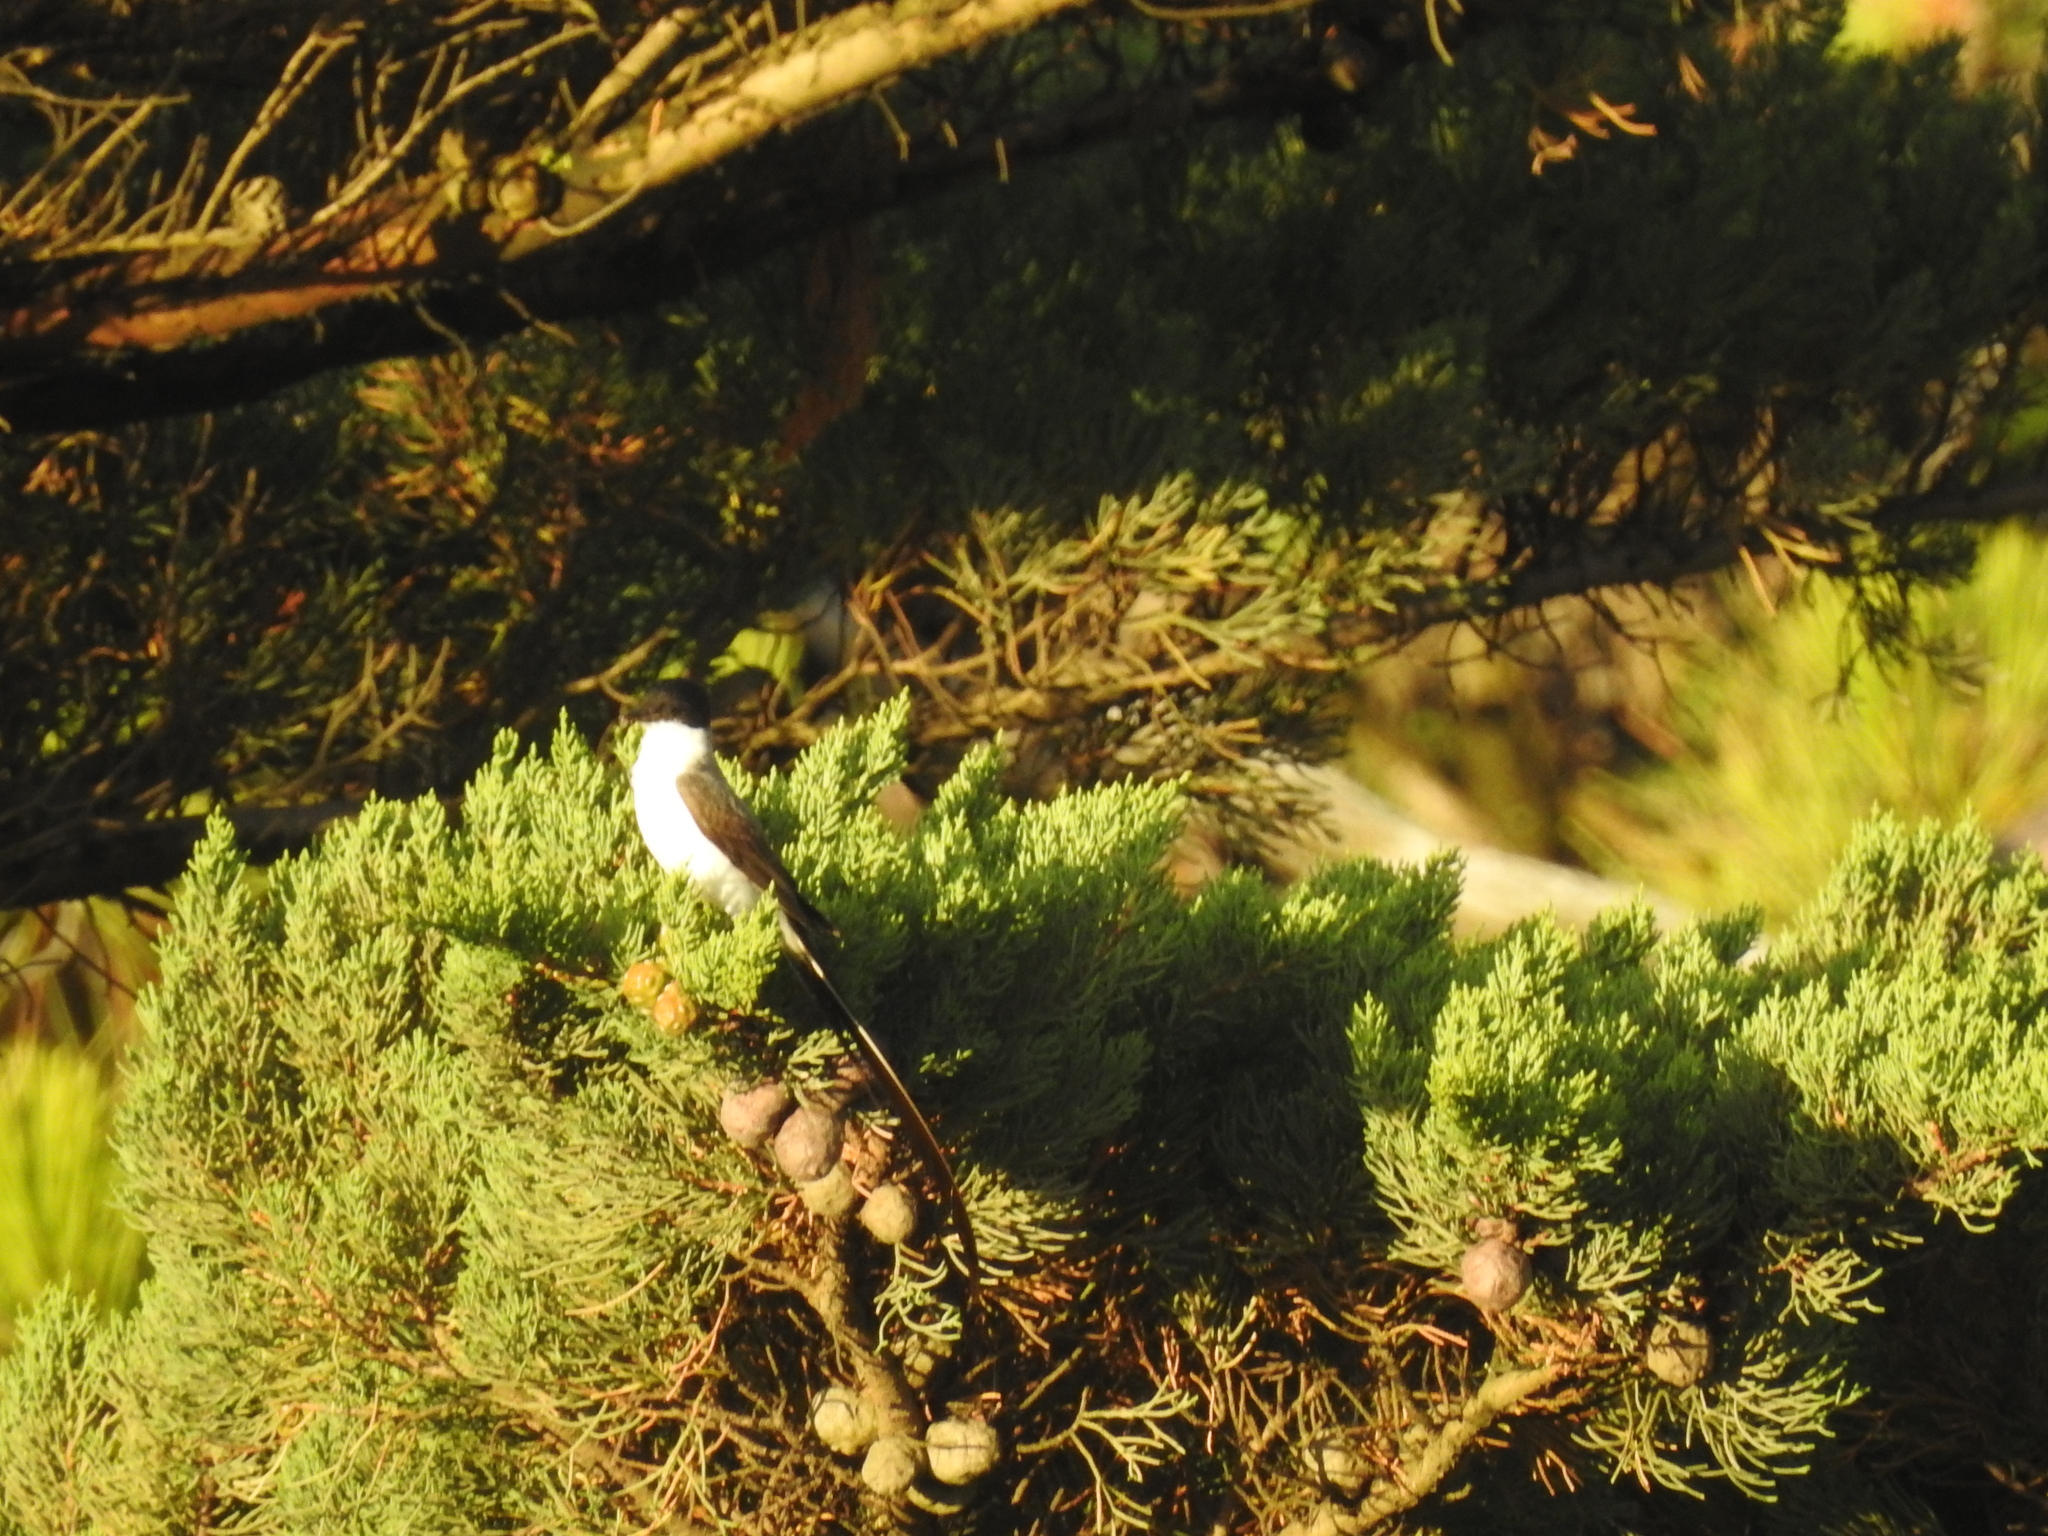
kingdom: Animalia
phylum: Chordata
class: Aves
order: Passeriformes
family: Tyrannidae
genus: Tyrannus
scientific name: Tyrannus savana
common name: Fork-tailed flycatcher
